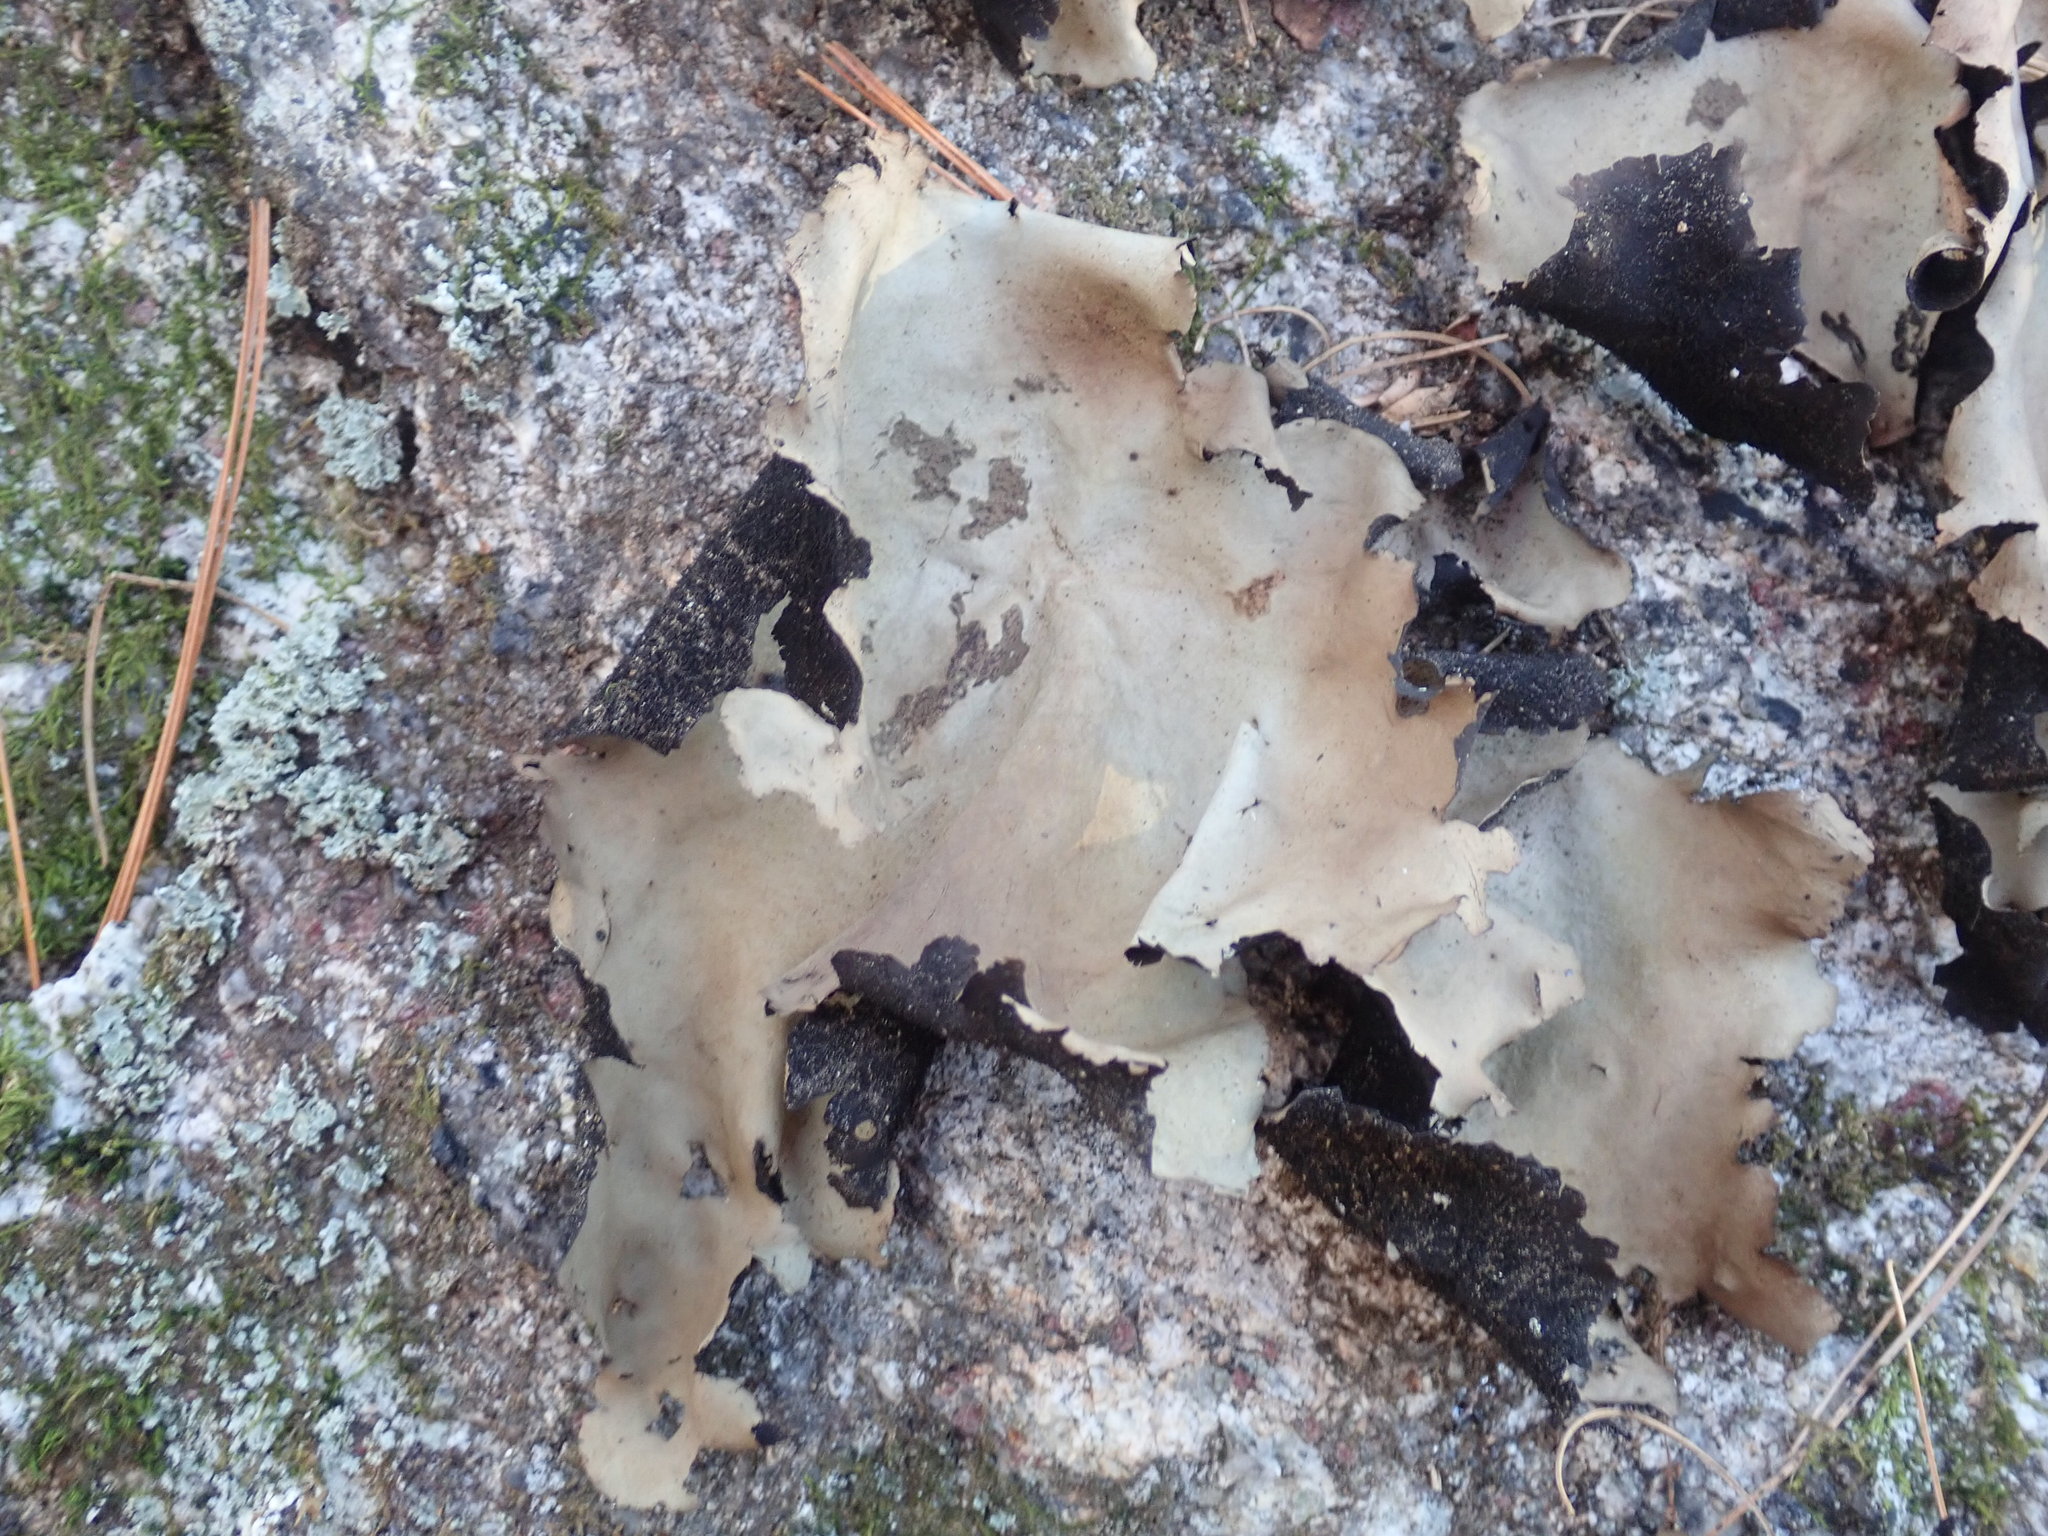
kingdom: Fungi
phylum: Ascomycota
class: Lecanoromycetes
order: Umbilicariales
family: Umbilicariaceae
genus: Umbilicaria
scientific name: Umbilicaria mammulata
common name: Smooth rock tripe
